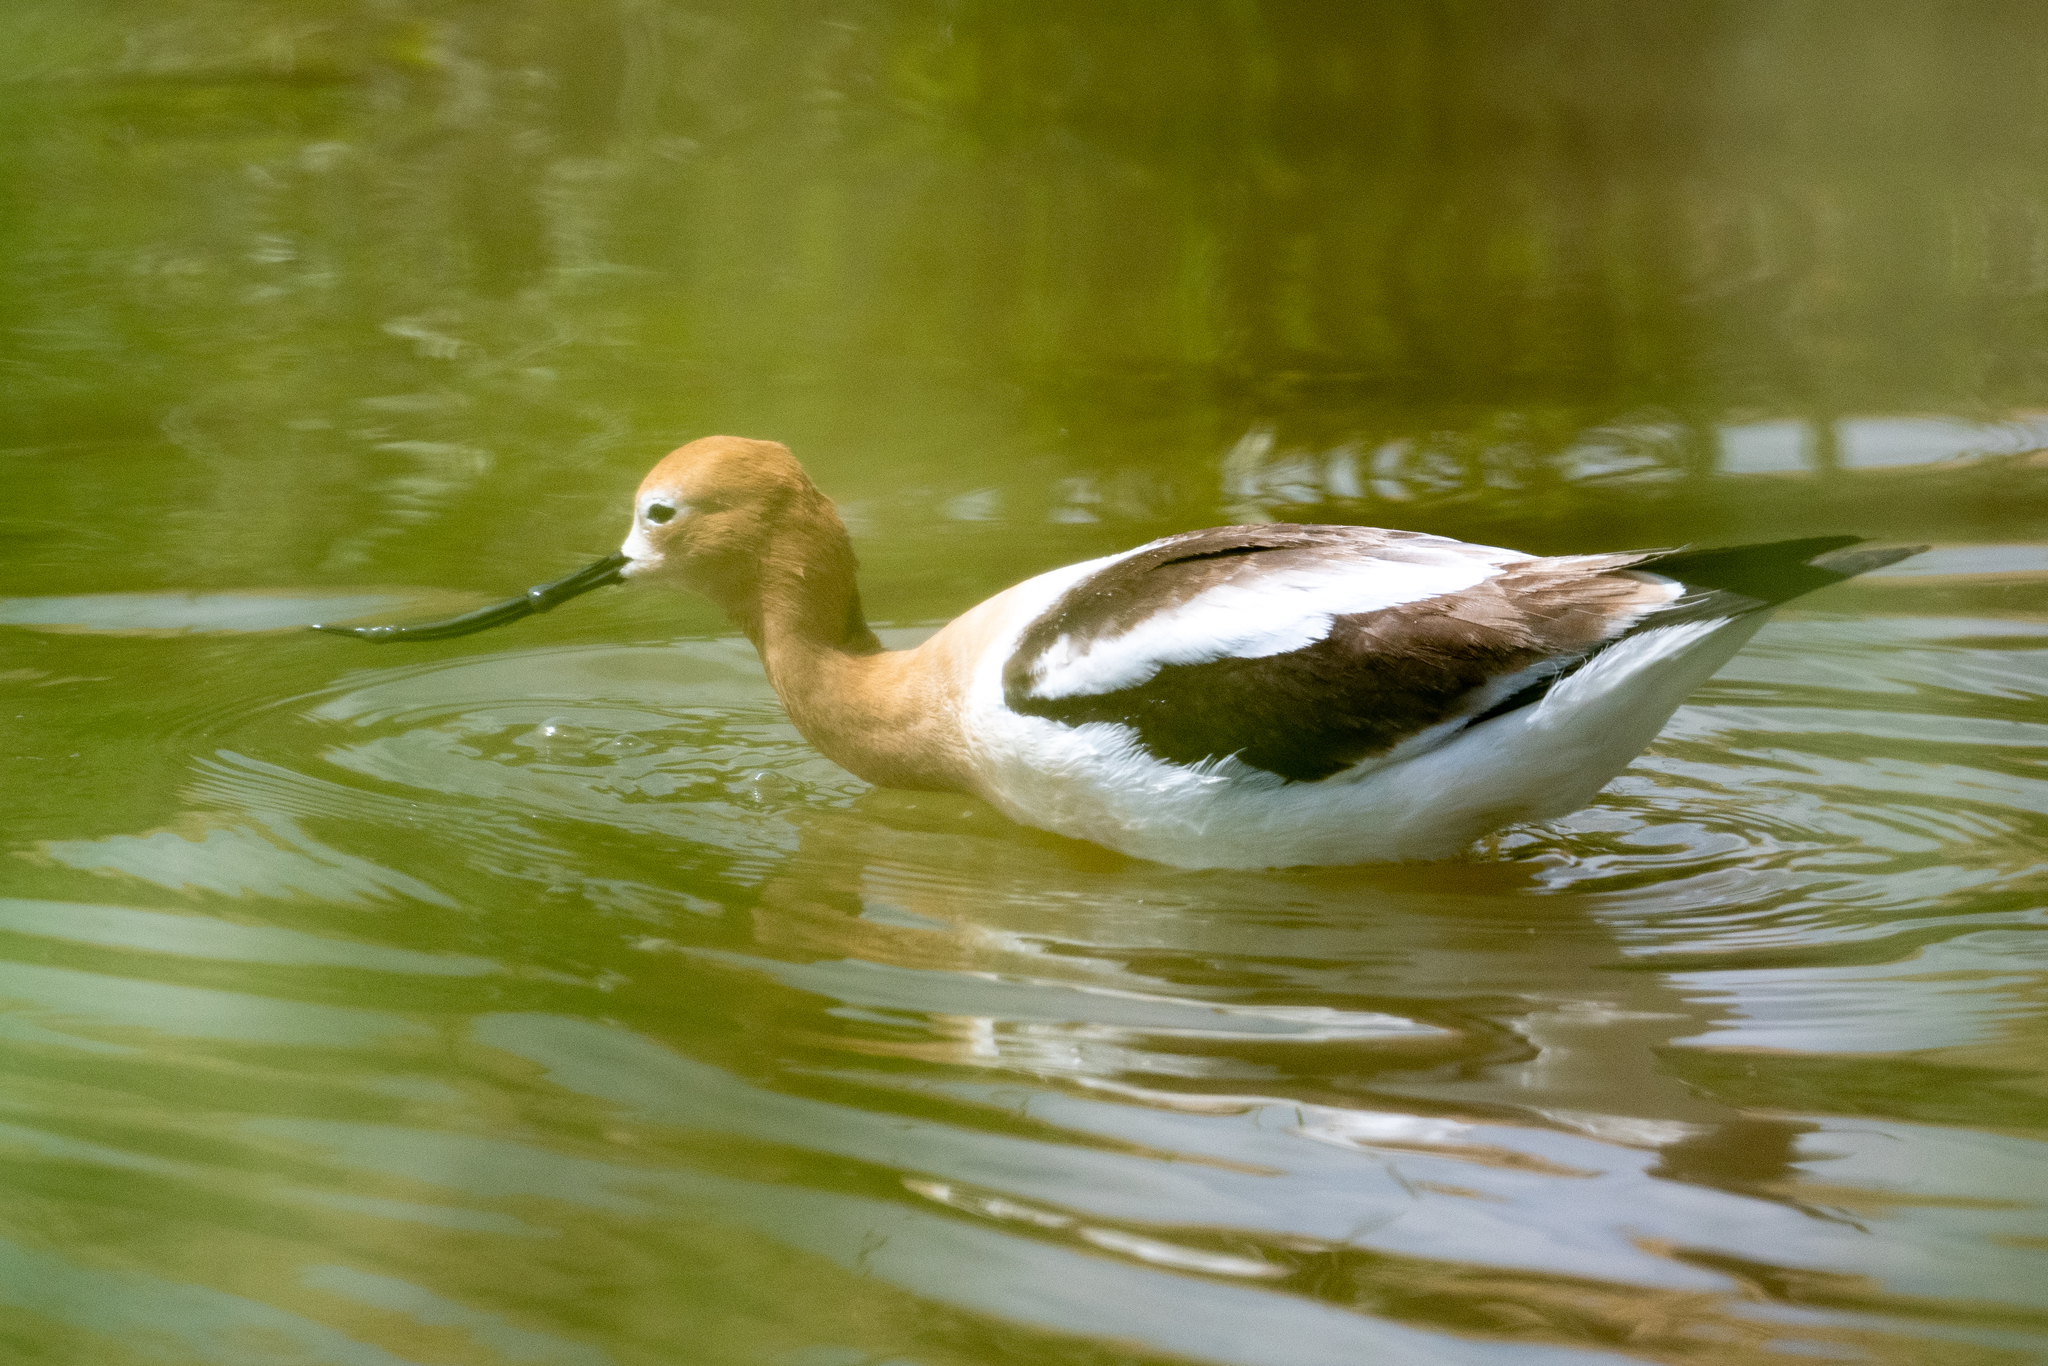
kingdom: Animalia
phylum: Chordata
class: Aves
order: Charadriiformes
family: Recurvirostridae
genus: Recurvirostra
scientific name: Recurvirostra americana
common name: American avocet
